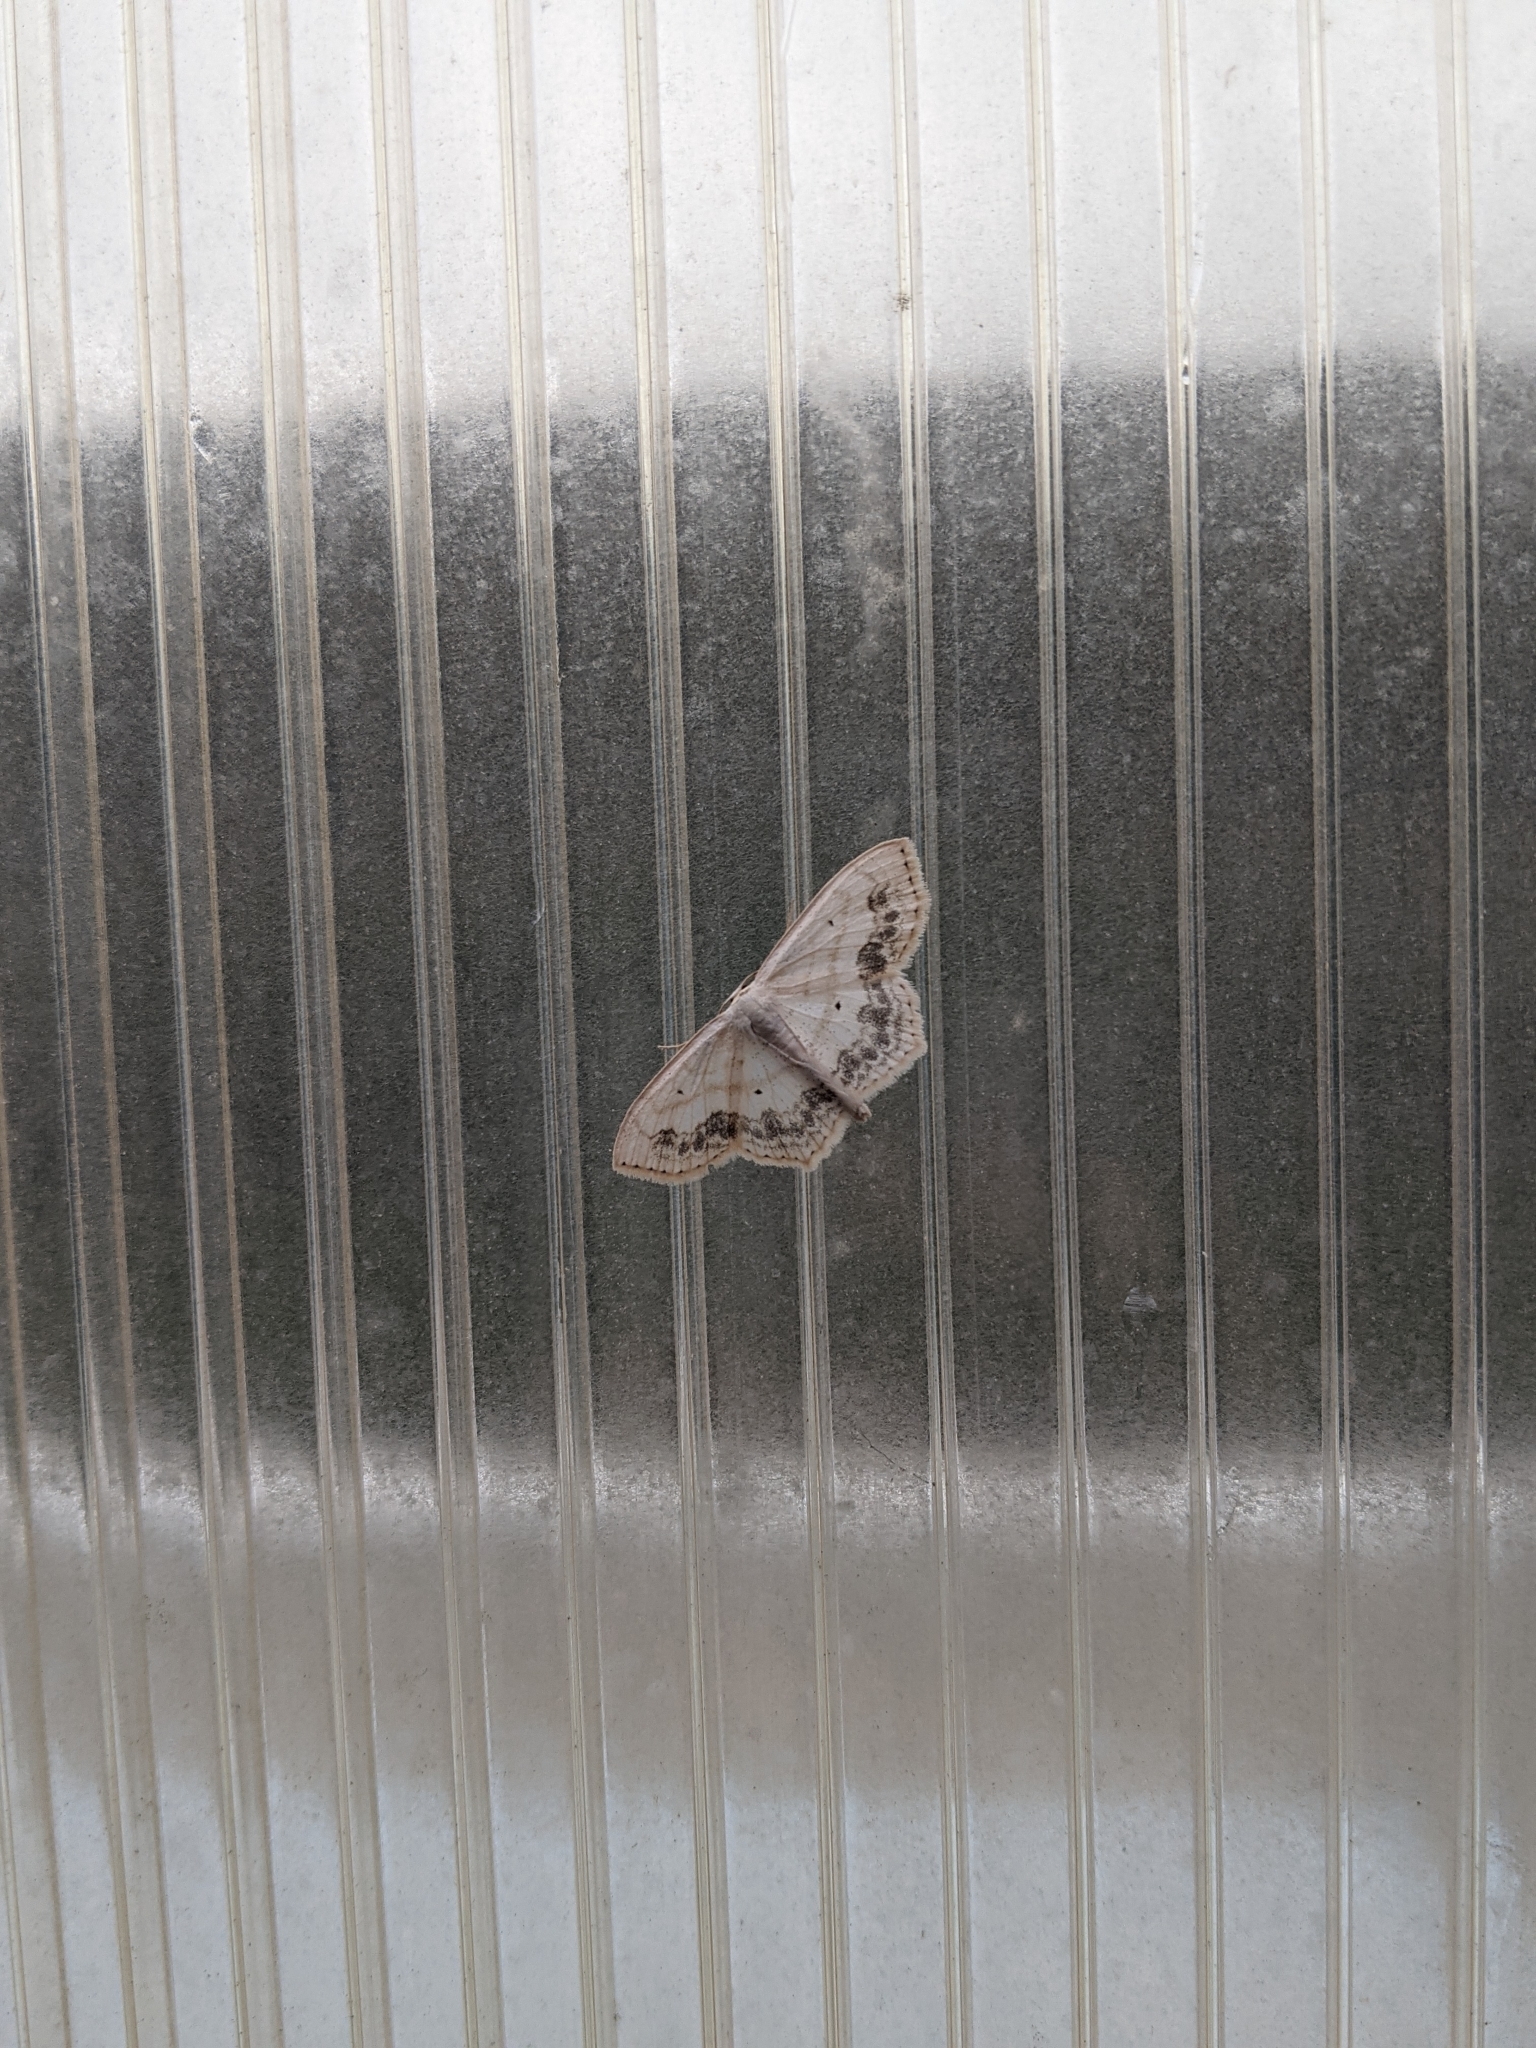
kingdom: Animalia
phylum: Arthropoda
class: Insecta
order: Lepidoptera
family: Geometridae
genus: Scopula
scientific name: Scopula limboundata
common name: Large lace border
